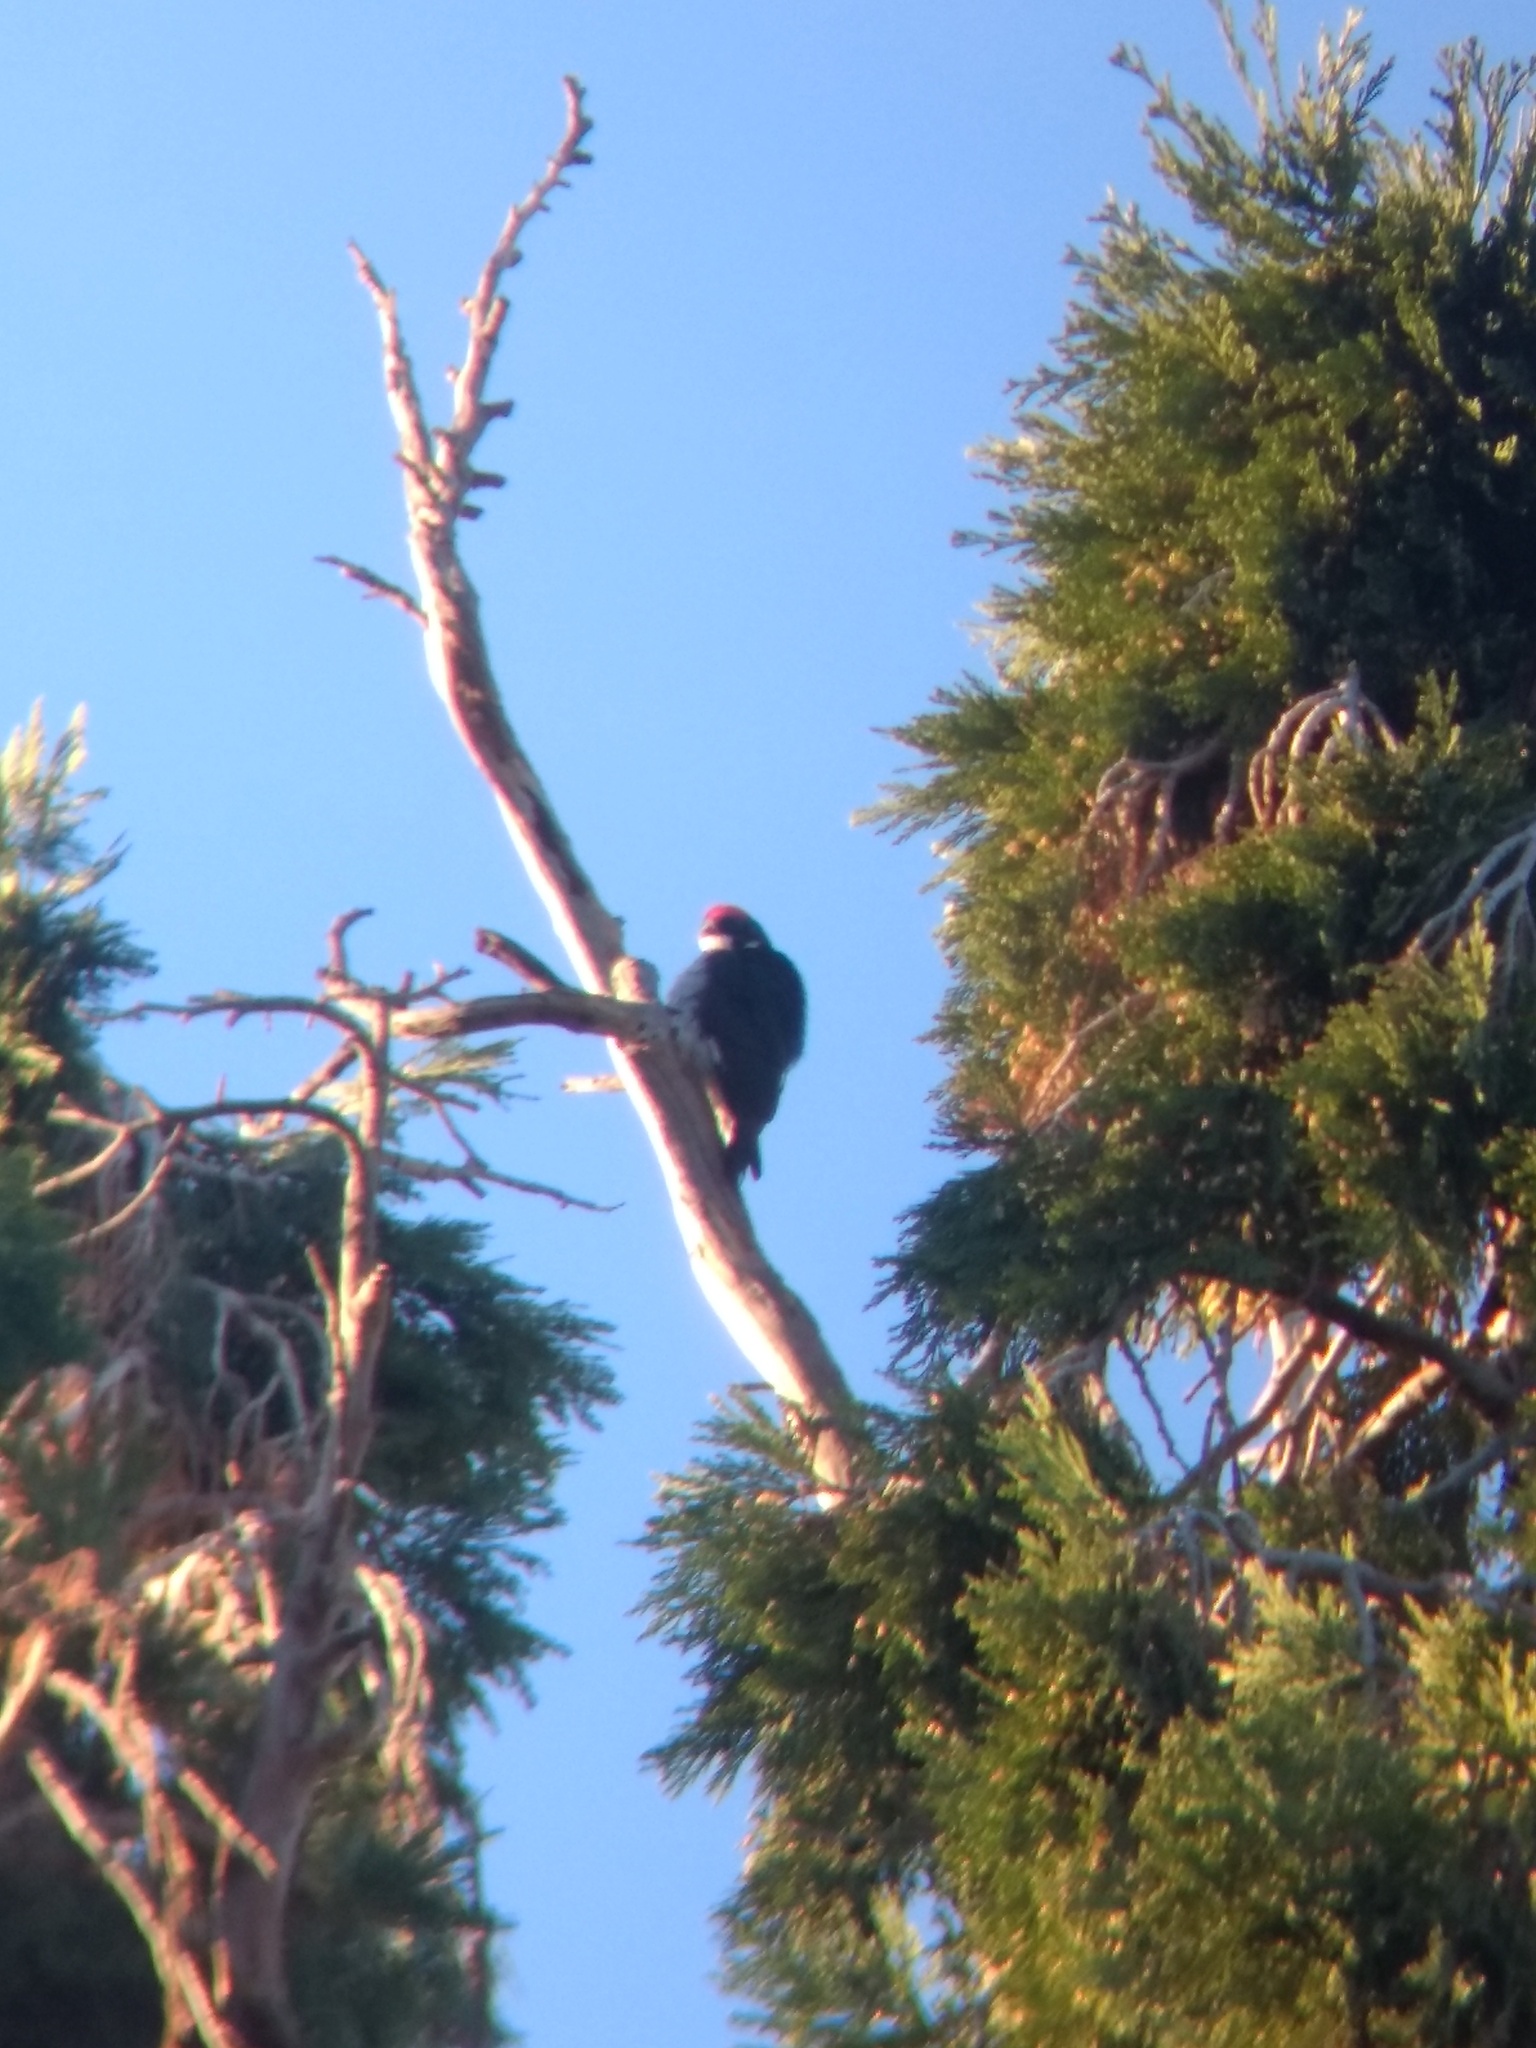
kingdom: Animalia
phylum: Chordata
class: Aves
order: Piciformes
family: Picidae
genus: Melanerpes
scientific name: Melanerpes formicivorus
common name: Acorn woodpecker
